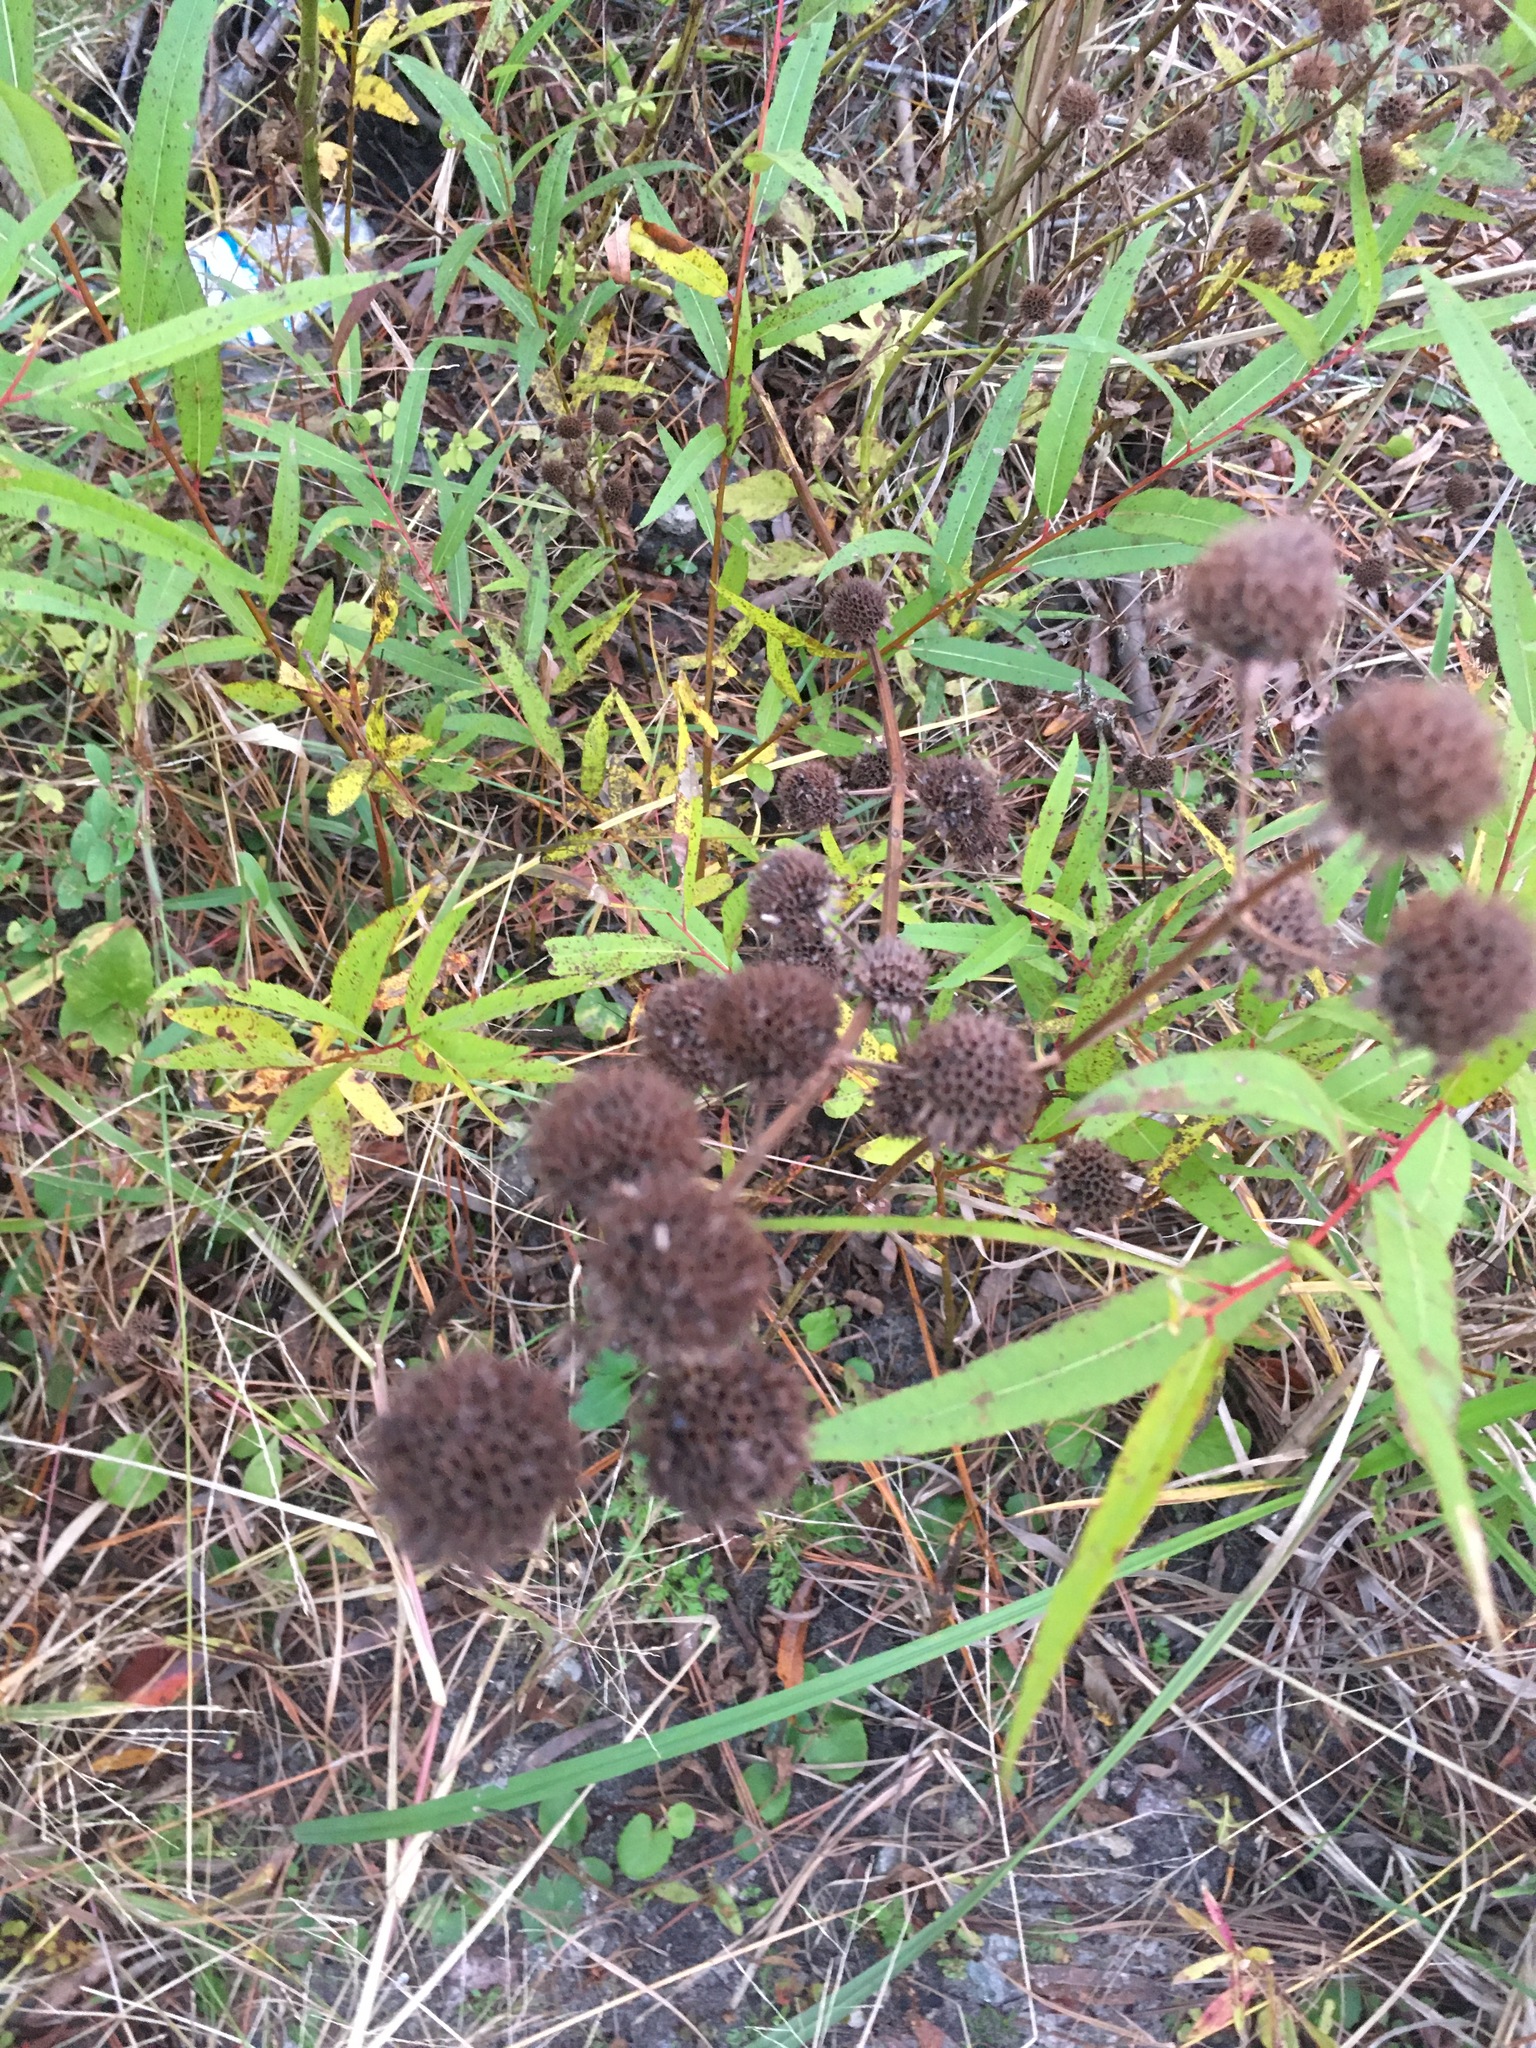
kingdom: Plantae
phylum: Tracheophyta
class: Magnoliopsida
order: Lamiales
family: Lamiaceae
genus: Hyptis
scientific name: Hyptis alata
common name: Cluster bush-mint
